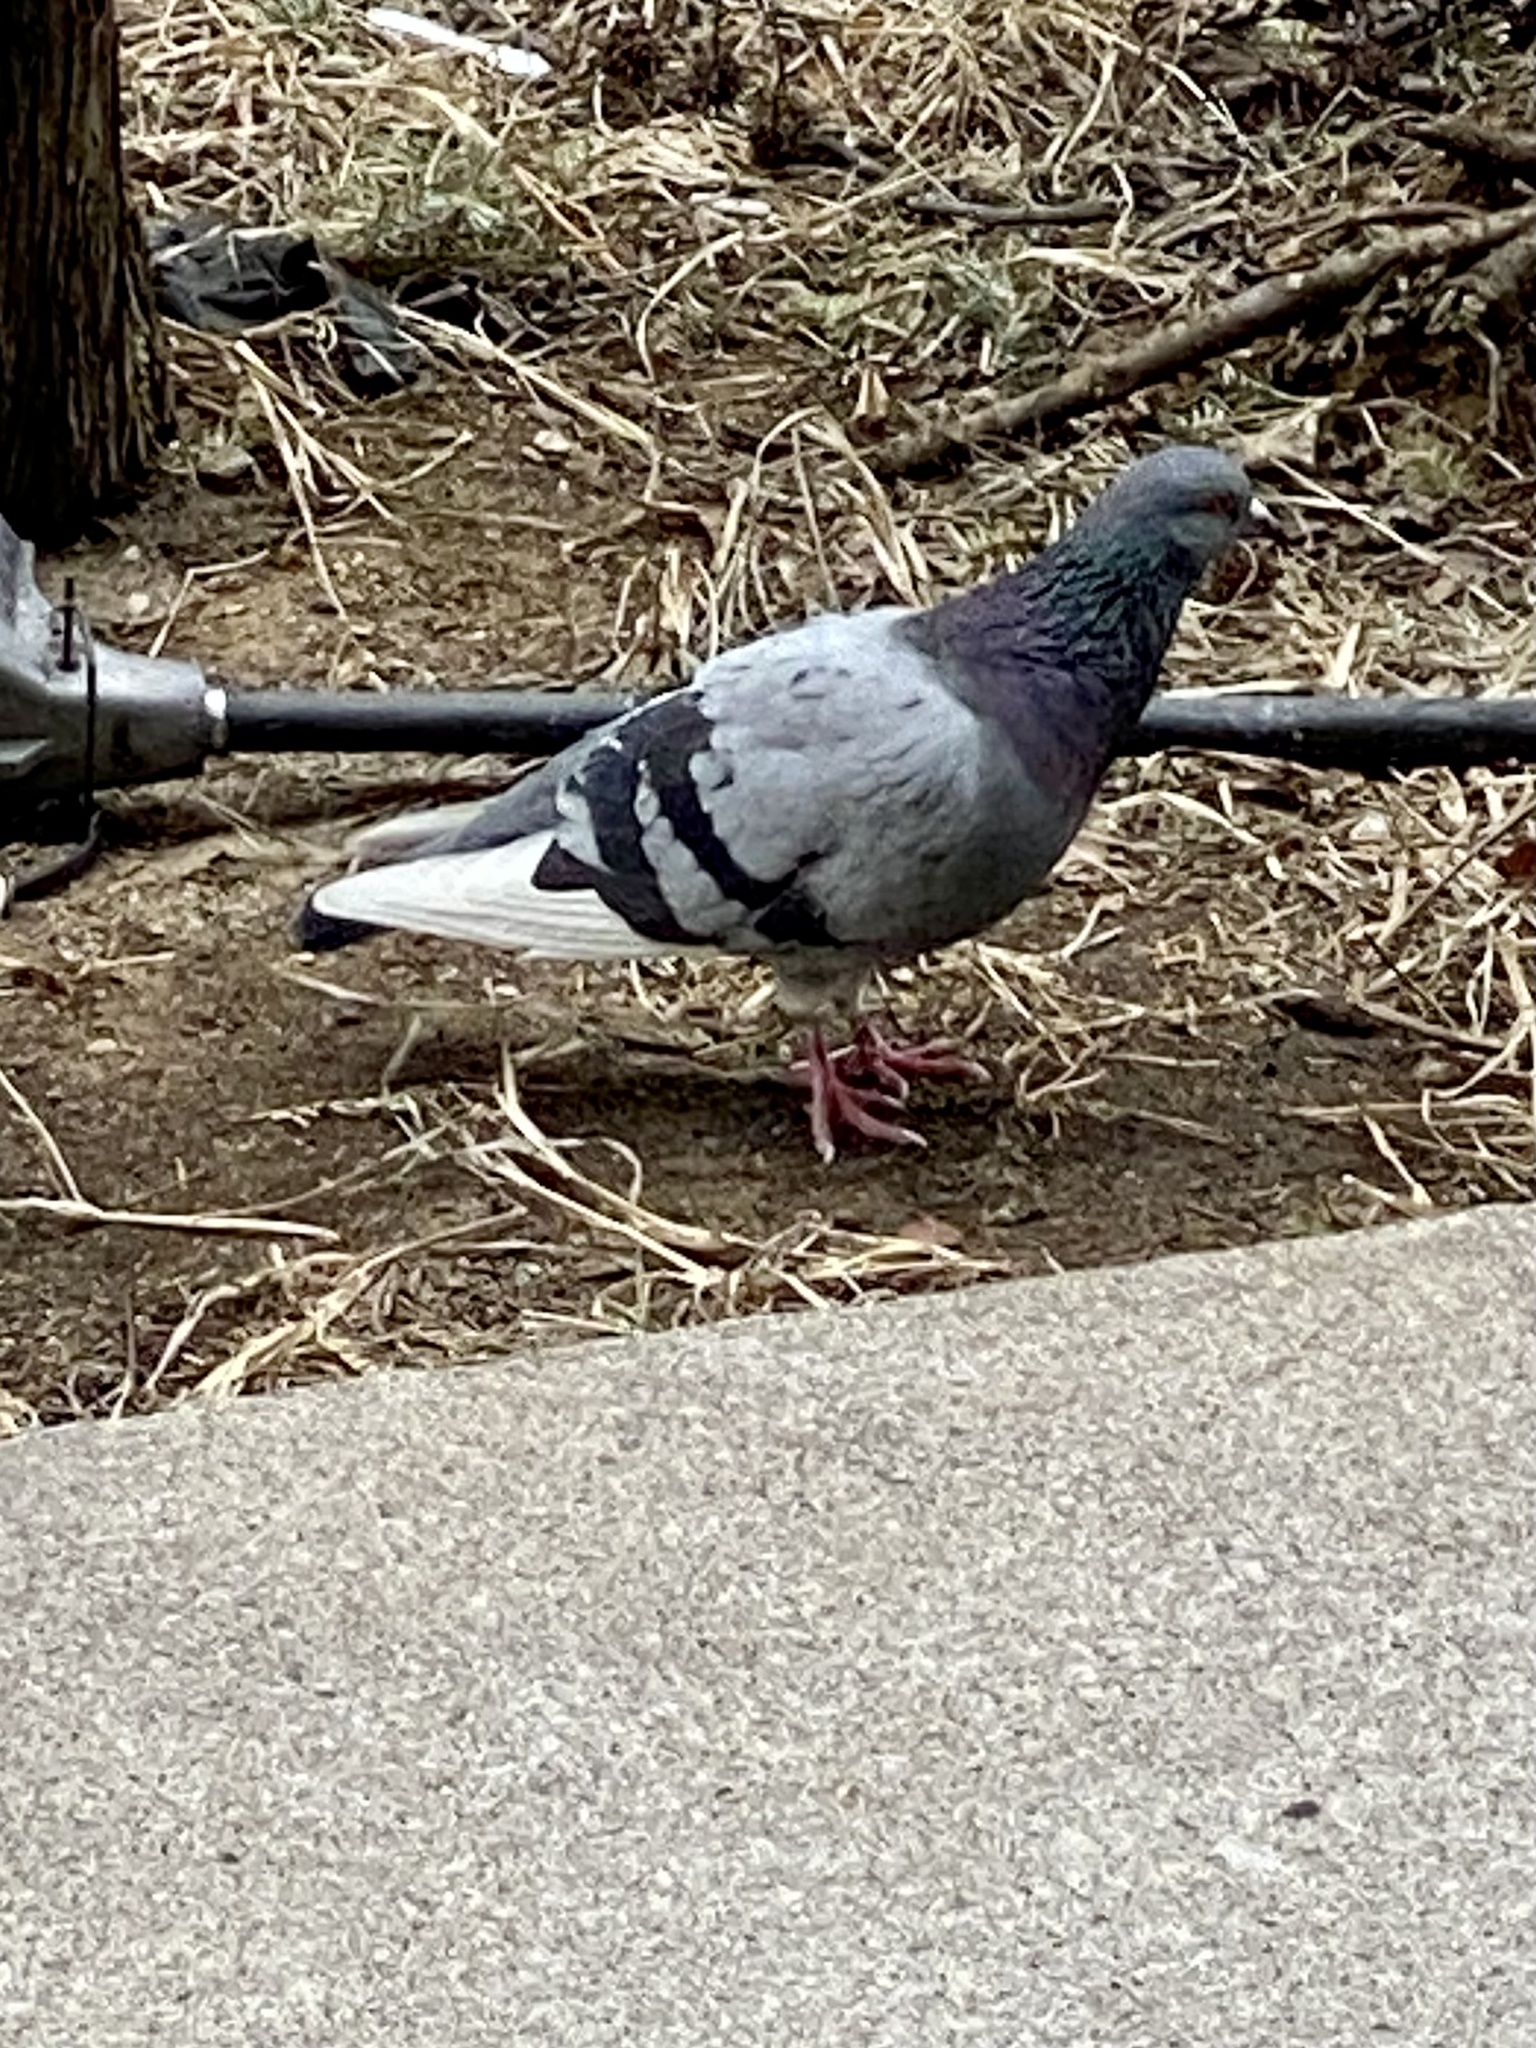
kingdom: Animalia
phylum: Chordata
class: Aves
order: Columbiformes
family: Columbidae
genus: Columba
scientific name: Columba livia
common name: Rock pigeon
